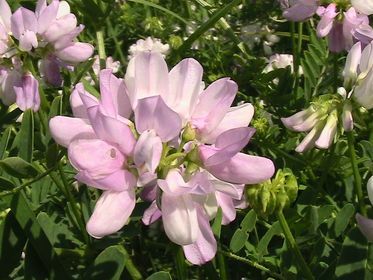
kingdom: Plantae
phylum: Tracheophyta
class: Magnoliopsida
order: Fabales
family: Fabaceae
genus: Coronilla
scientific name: Coronilla varia
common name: Crownvetch
